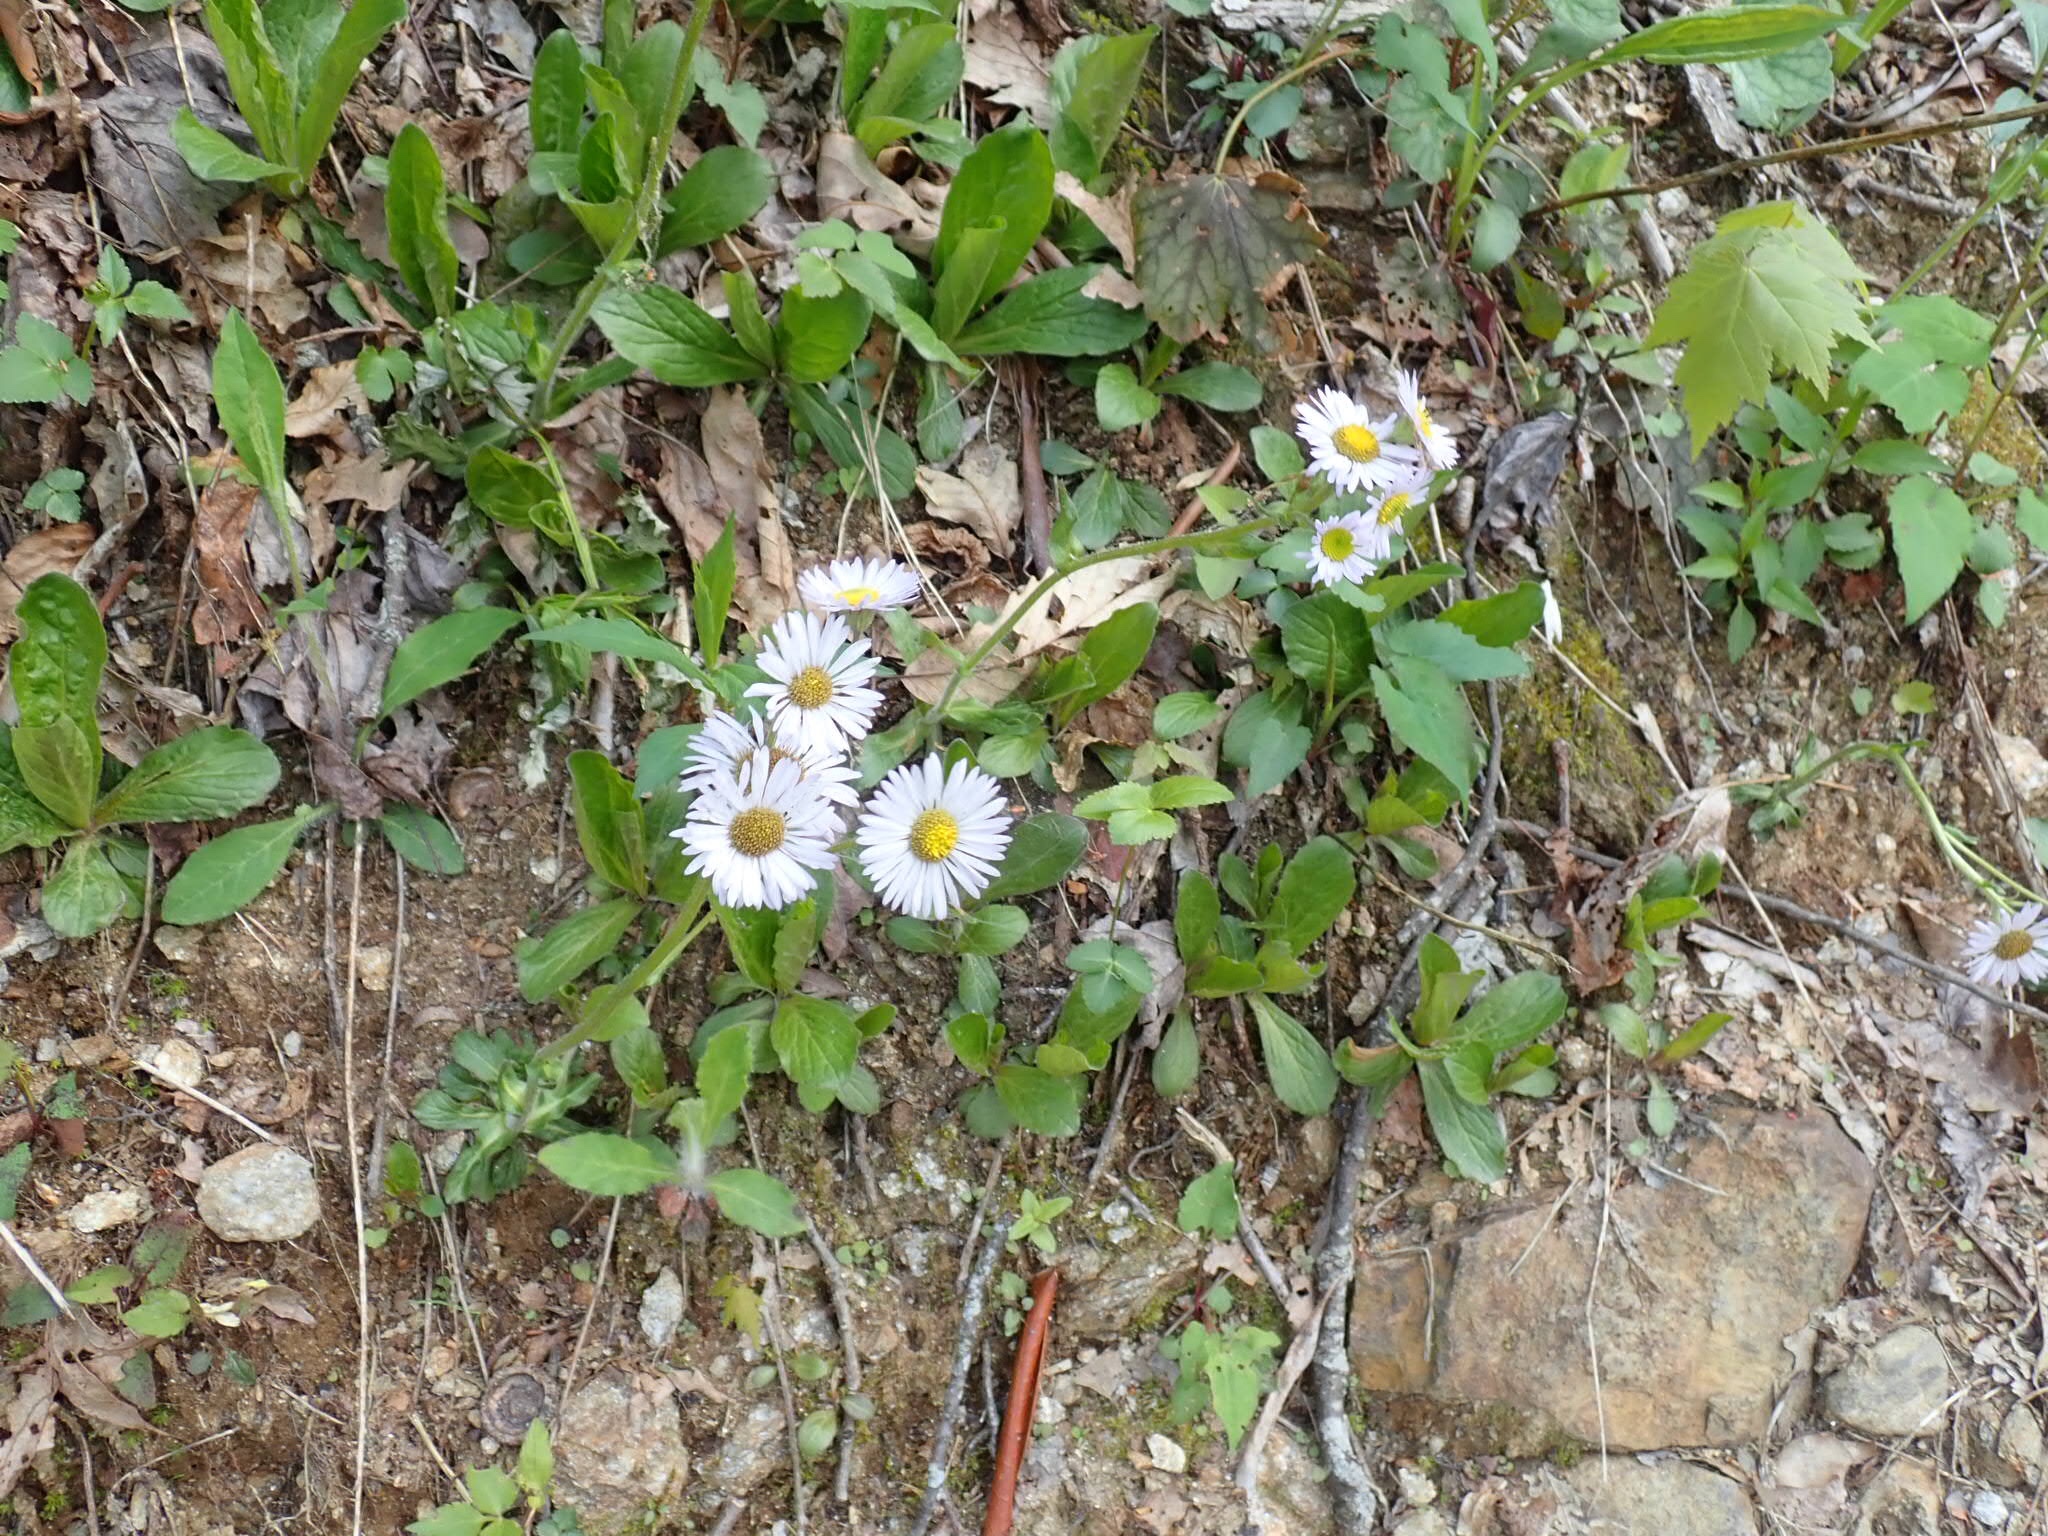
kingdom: Plantae
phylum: Tracheophyta
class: Magnoliopsida
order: Asterales
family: Asteraceae
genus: Erigeron
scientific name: Erigeron pulchellus
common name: Hairy fleabane
